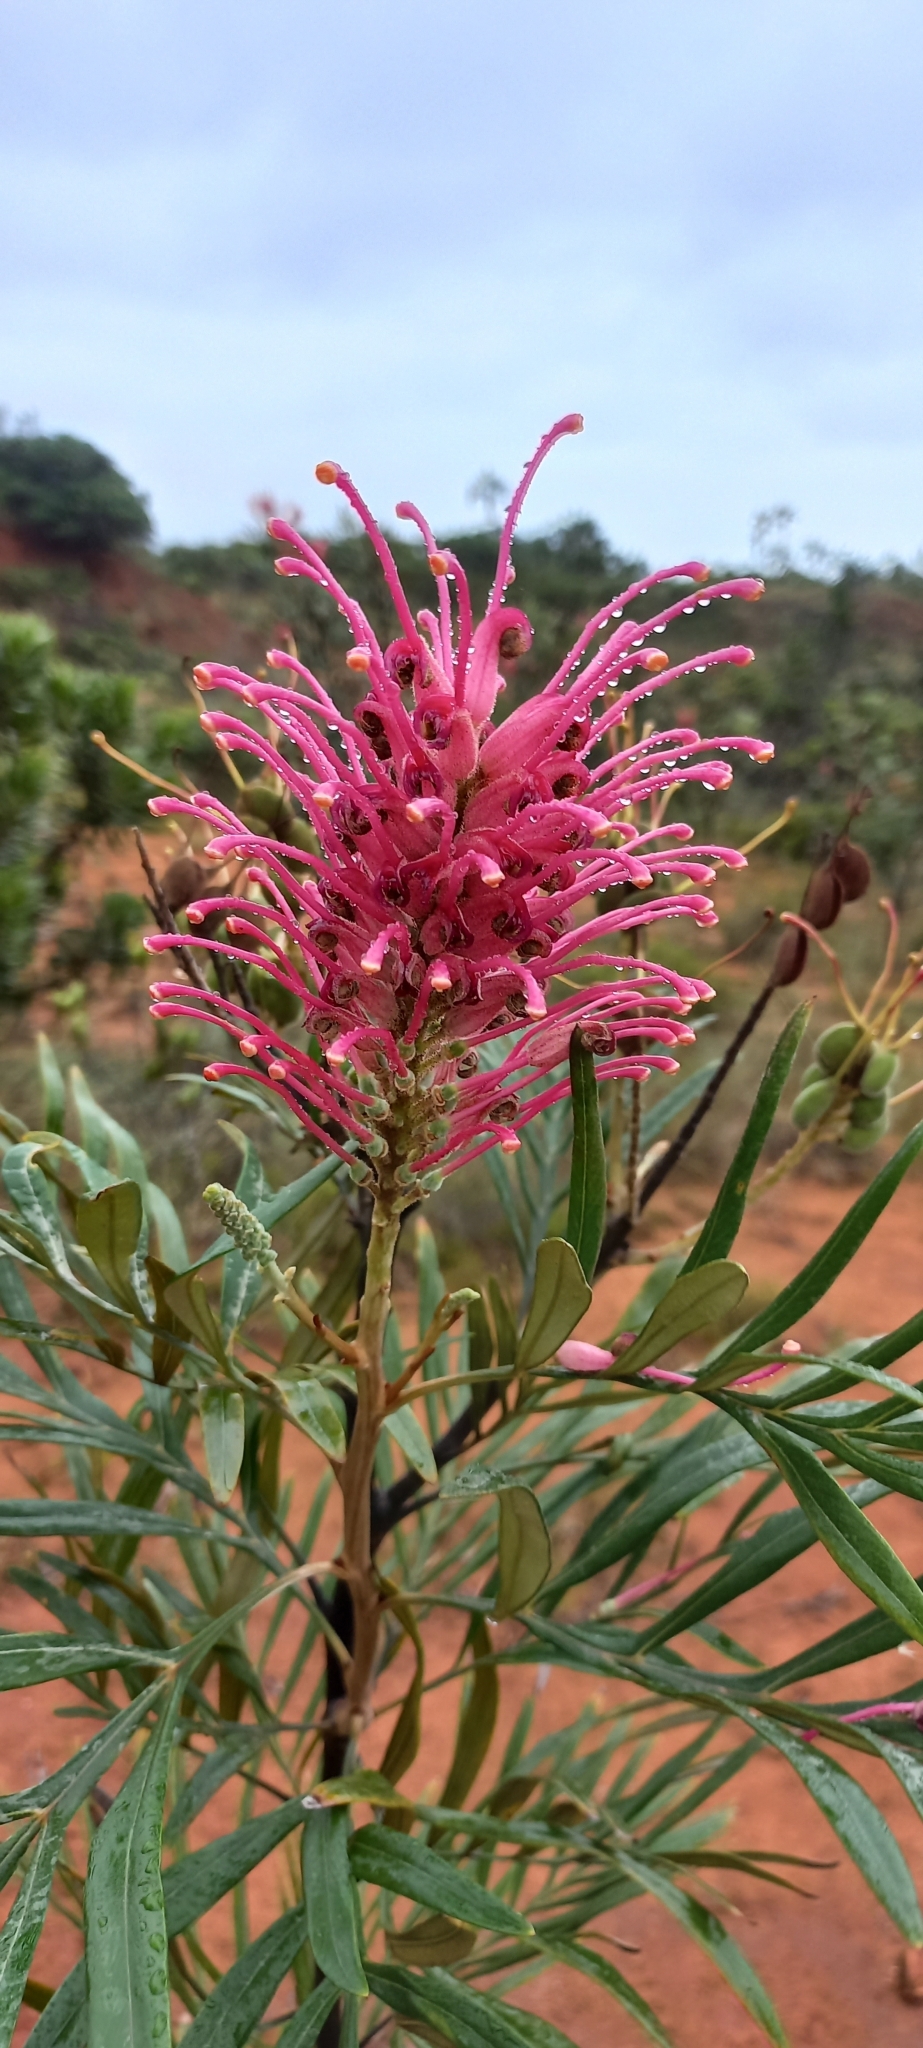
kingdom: Plantae
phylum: Tracheophyta
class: Magnoliopsida
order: Proteales
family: Proteaceae
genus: Grevillea
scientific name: Grevillea banksii
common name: Kahili flower
